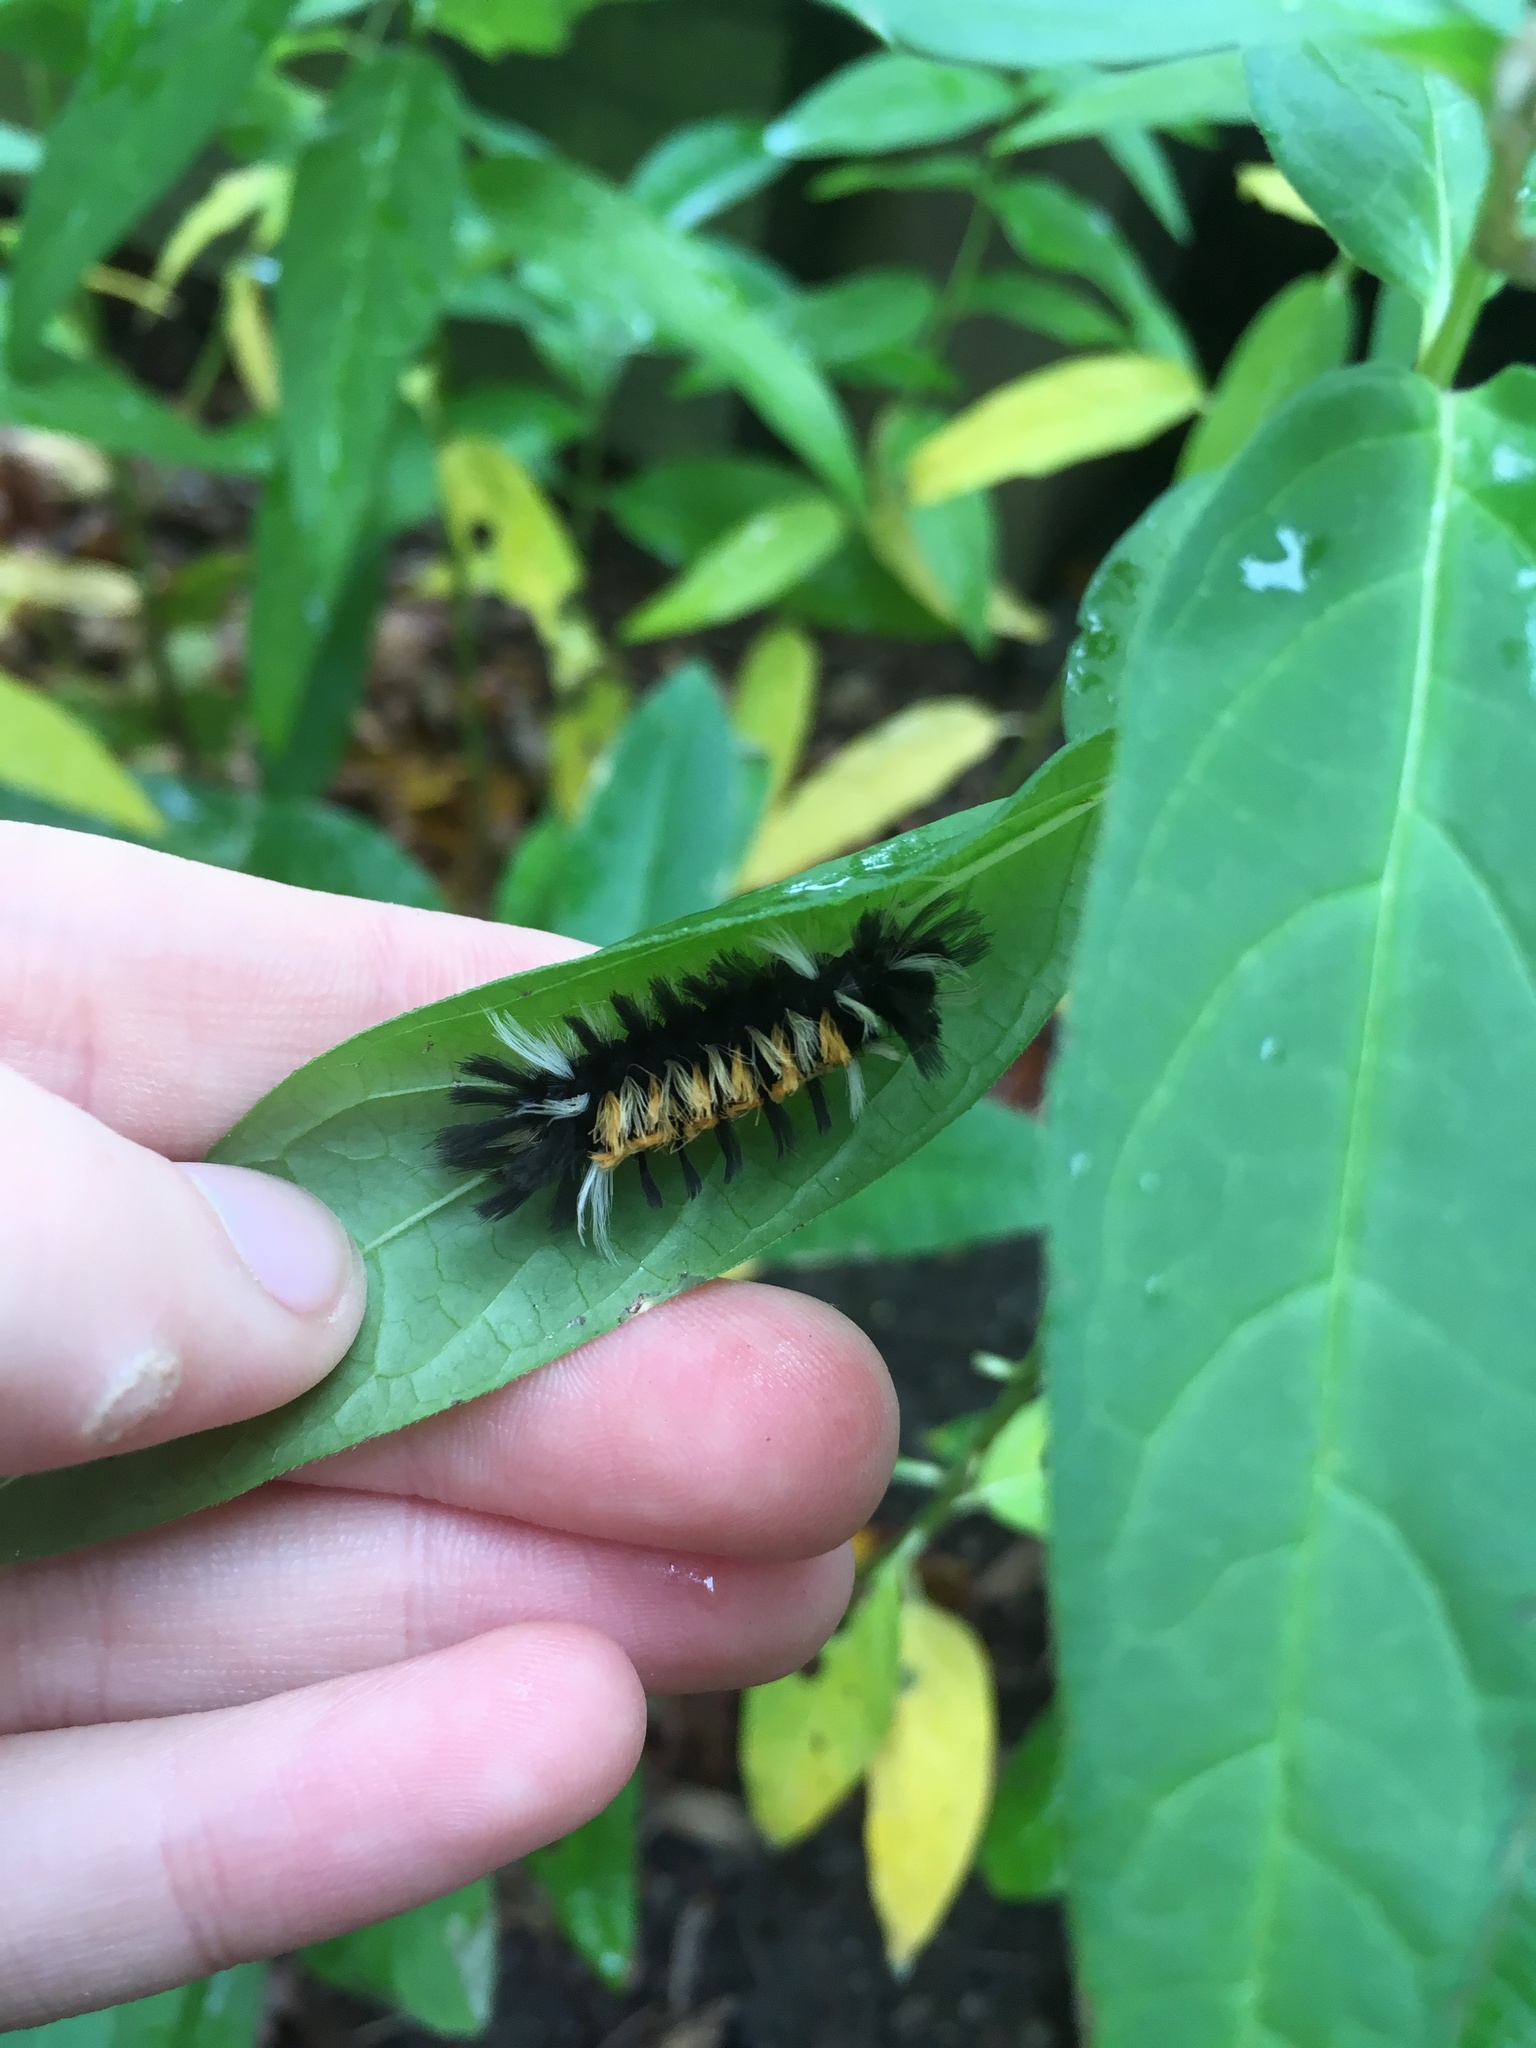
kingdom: Animalia
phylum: Arthropoda
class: Insecta
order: Lepidoptera
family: Erebidae
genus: Euchaetes
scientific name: Euchaetes egle
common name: Milkweed tussock moth
